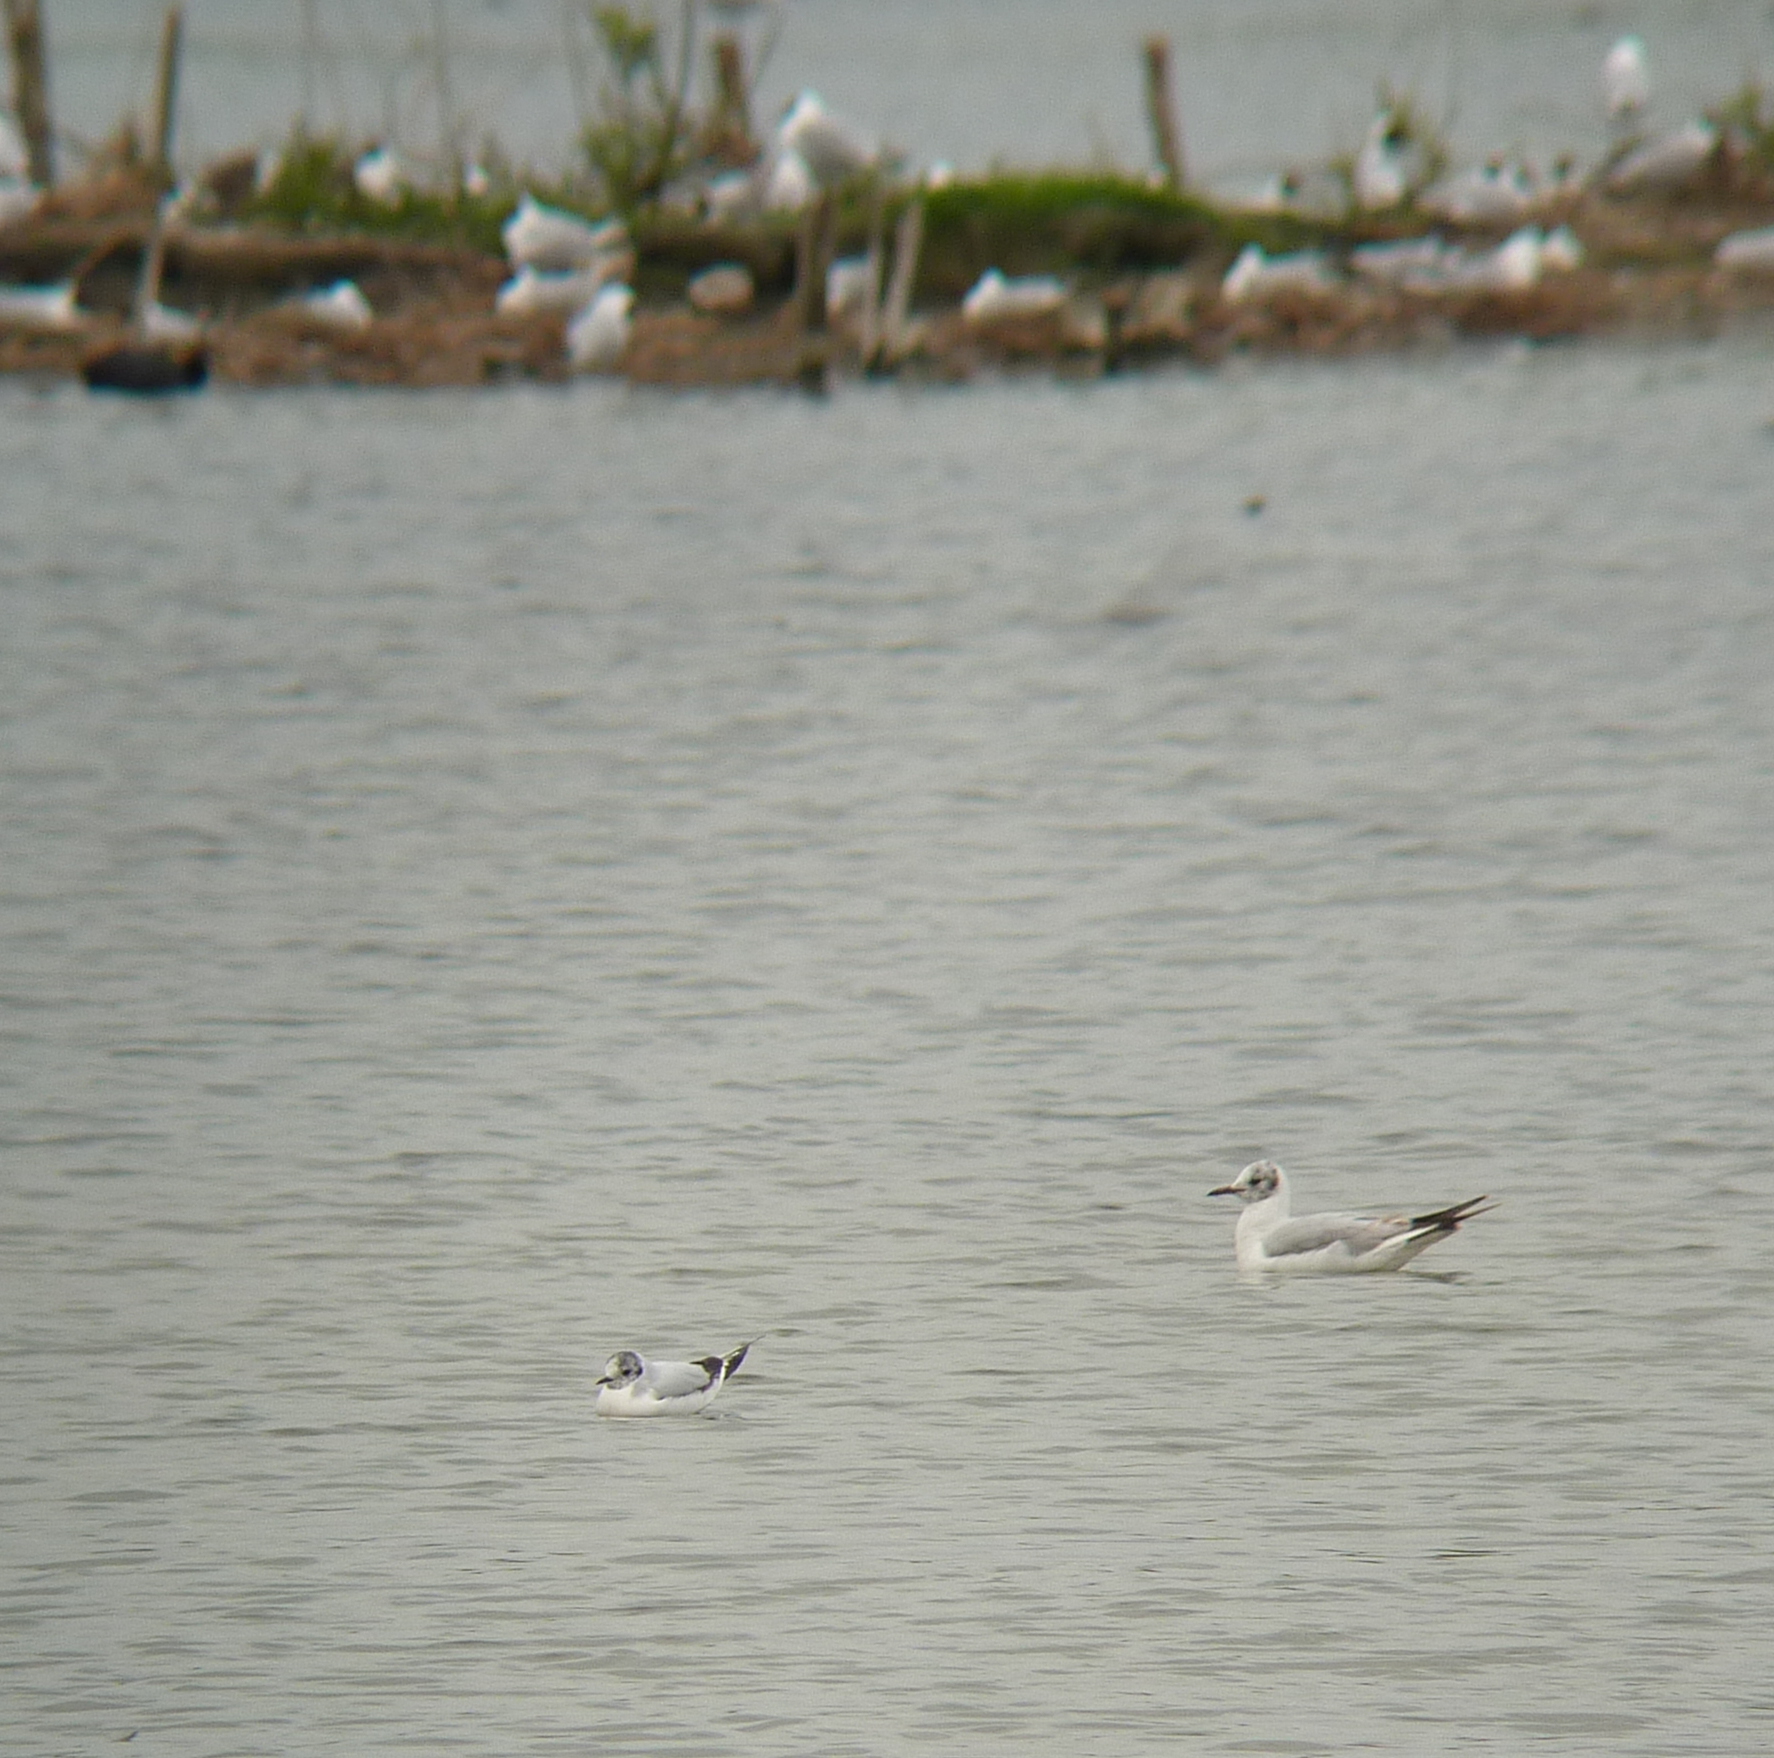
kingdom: Animalia
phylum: Chordata
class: Aves
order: Charadriiformes
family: Laridae
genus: Hydrocoloeus
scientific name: Hydrocoloeus minutus
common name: Little gull
